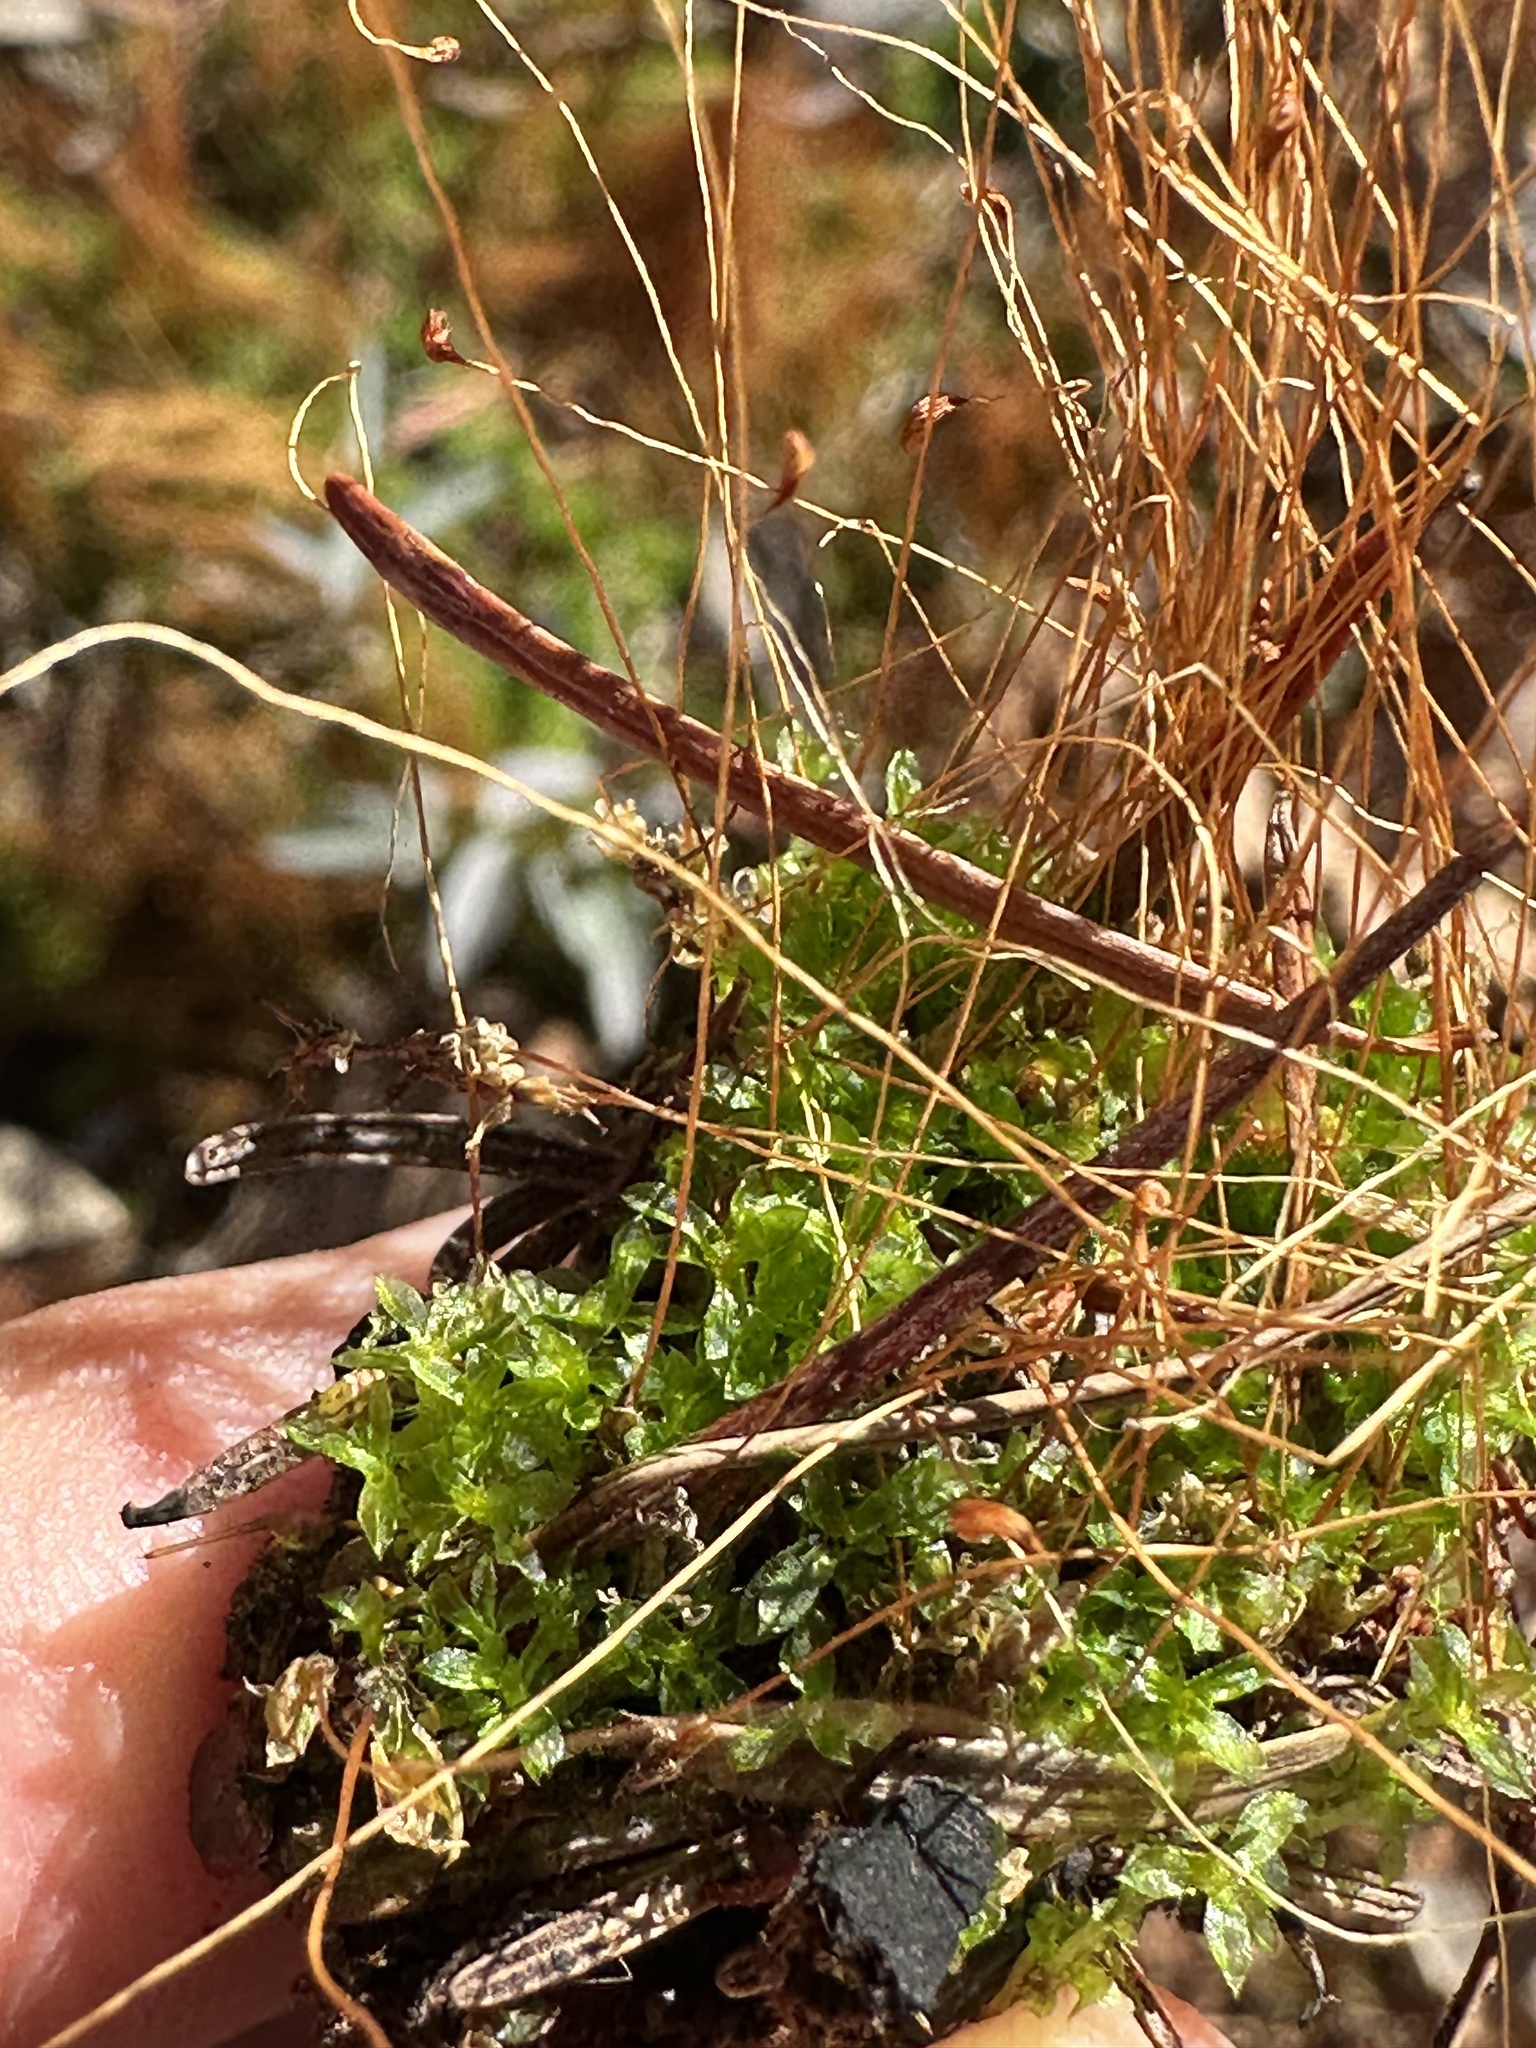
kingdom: Plantae
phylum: Bryophyta
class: Bryopsida
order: Funariales
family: Funariaceae
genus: Funaria
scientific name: Funaria hygrometrica
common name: Common cord moss
